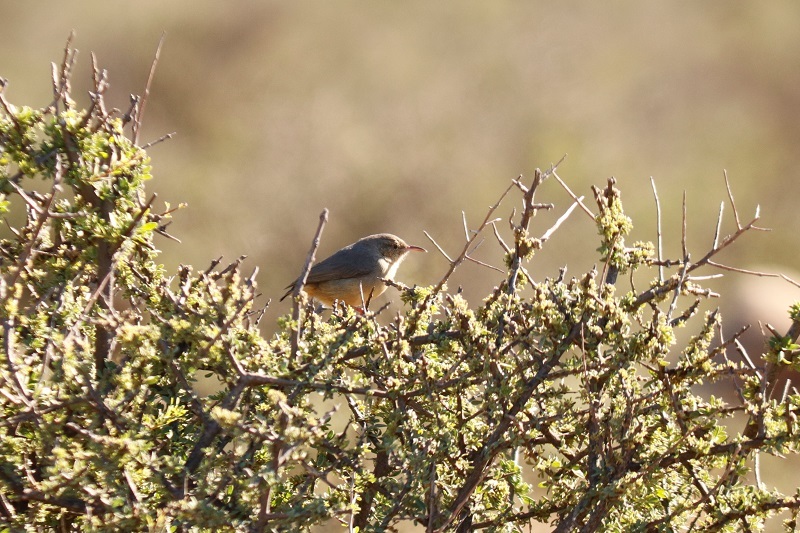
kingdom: Animalia
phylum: Chordata
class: Aves
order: Passeriformes
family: Macrosphenidae
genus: Sylvietta
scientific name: Sylvietta rufescens
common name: Long-billed crombec
